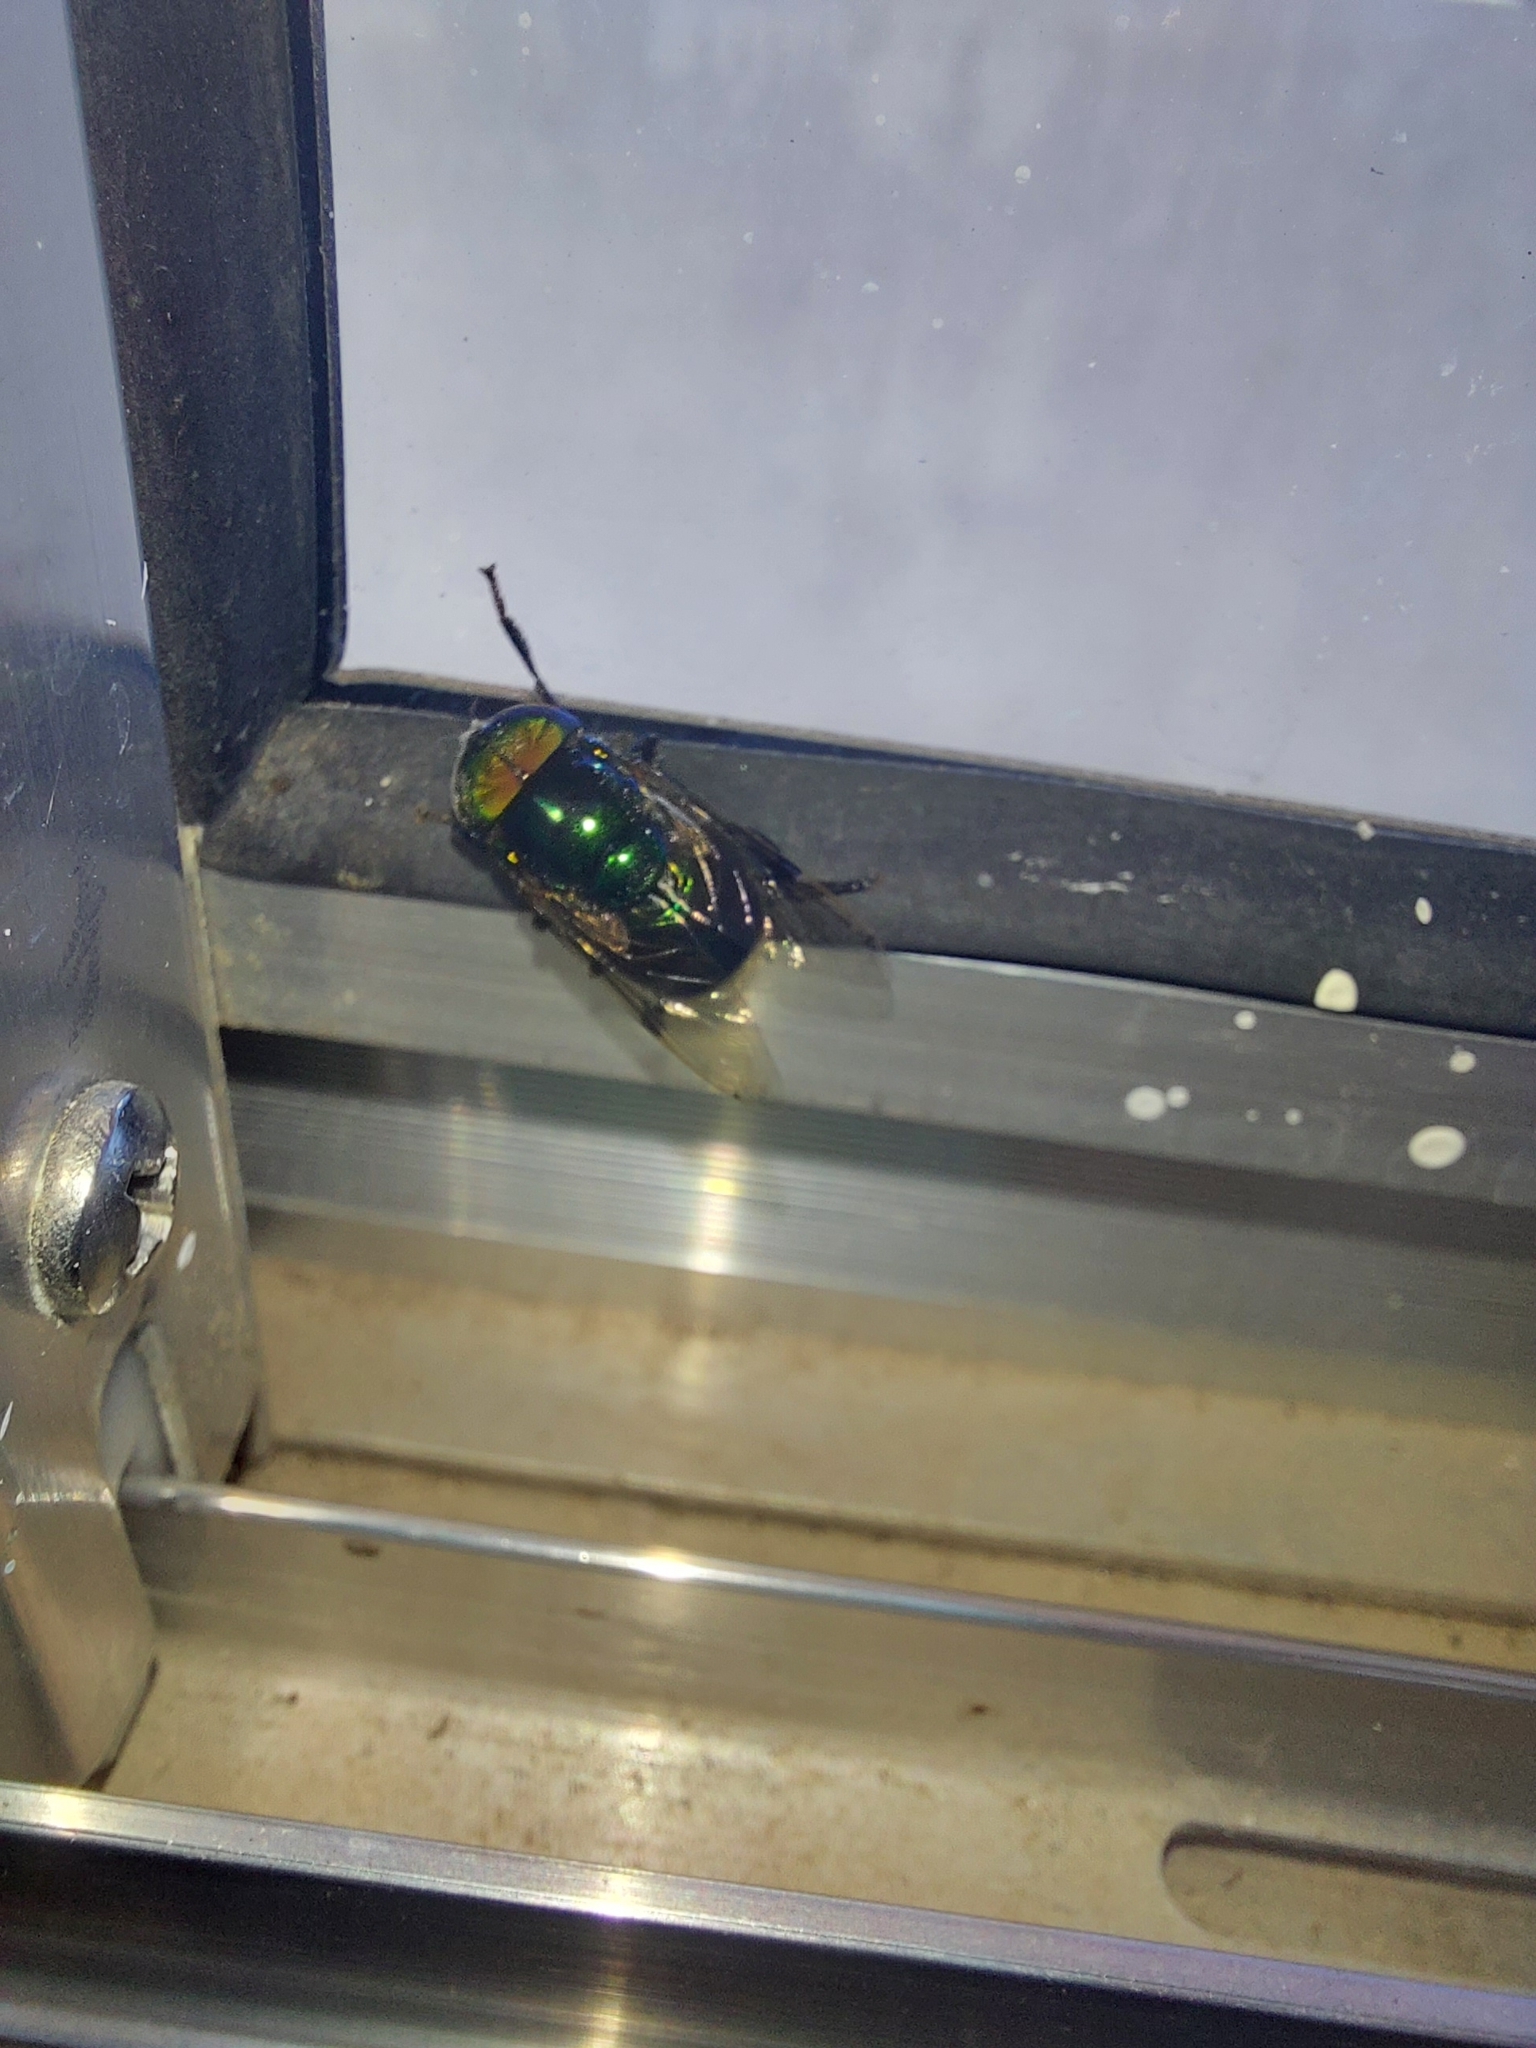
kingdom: Animalia
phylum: Arthropoda
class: Insecta
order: Diptera
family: Syrphidae
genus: Ornidia
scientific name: Ornidia obesa
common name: Syrphid fly
